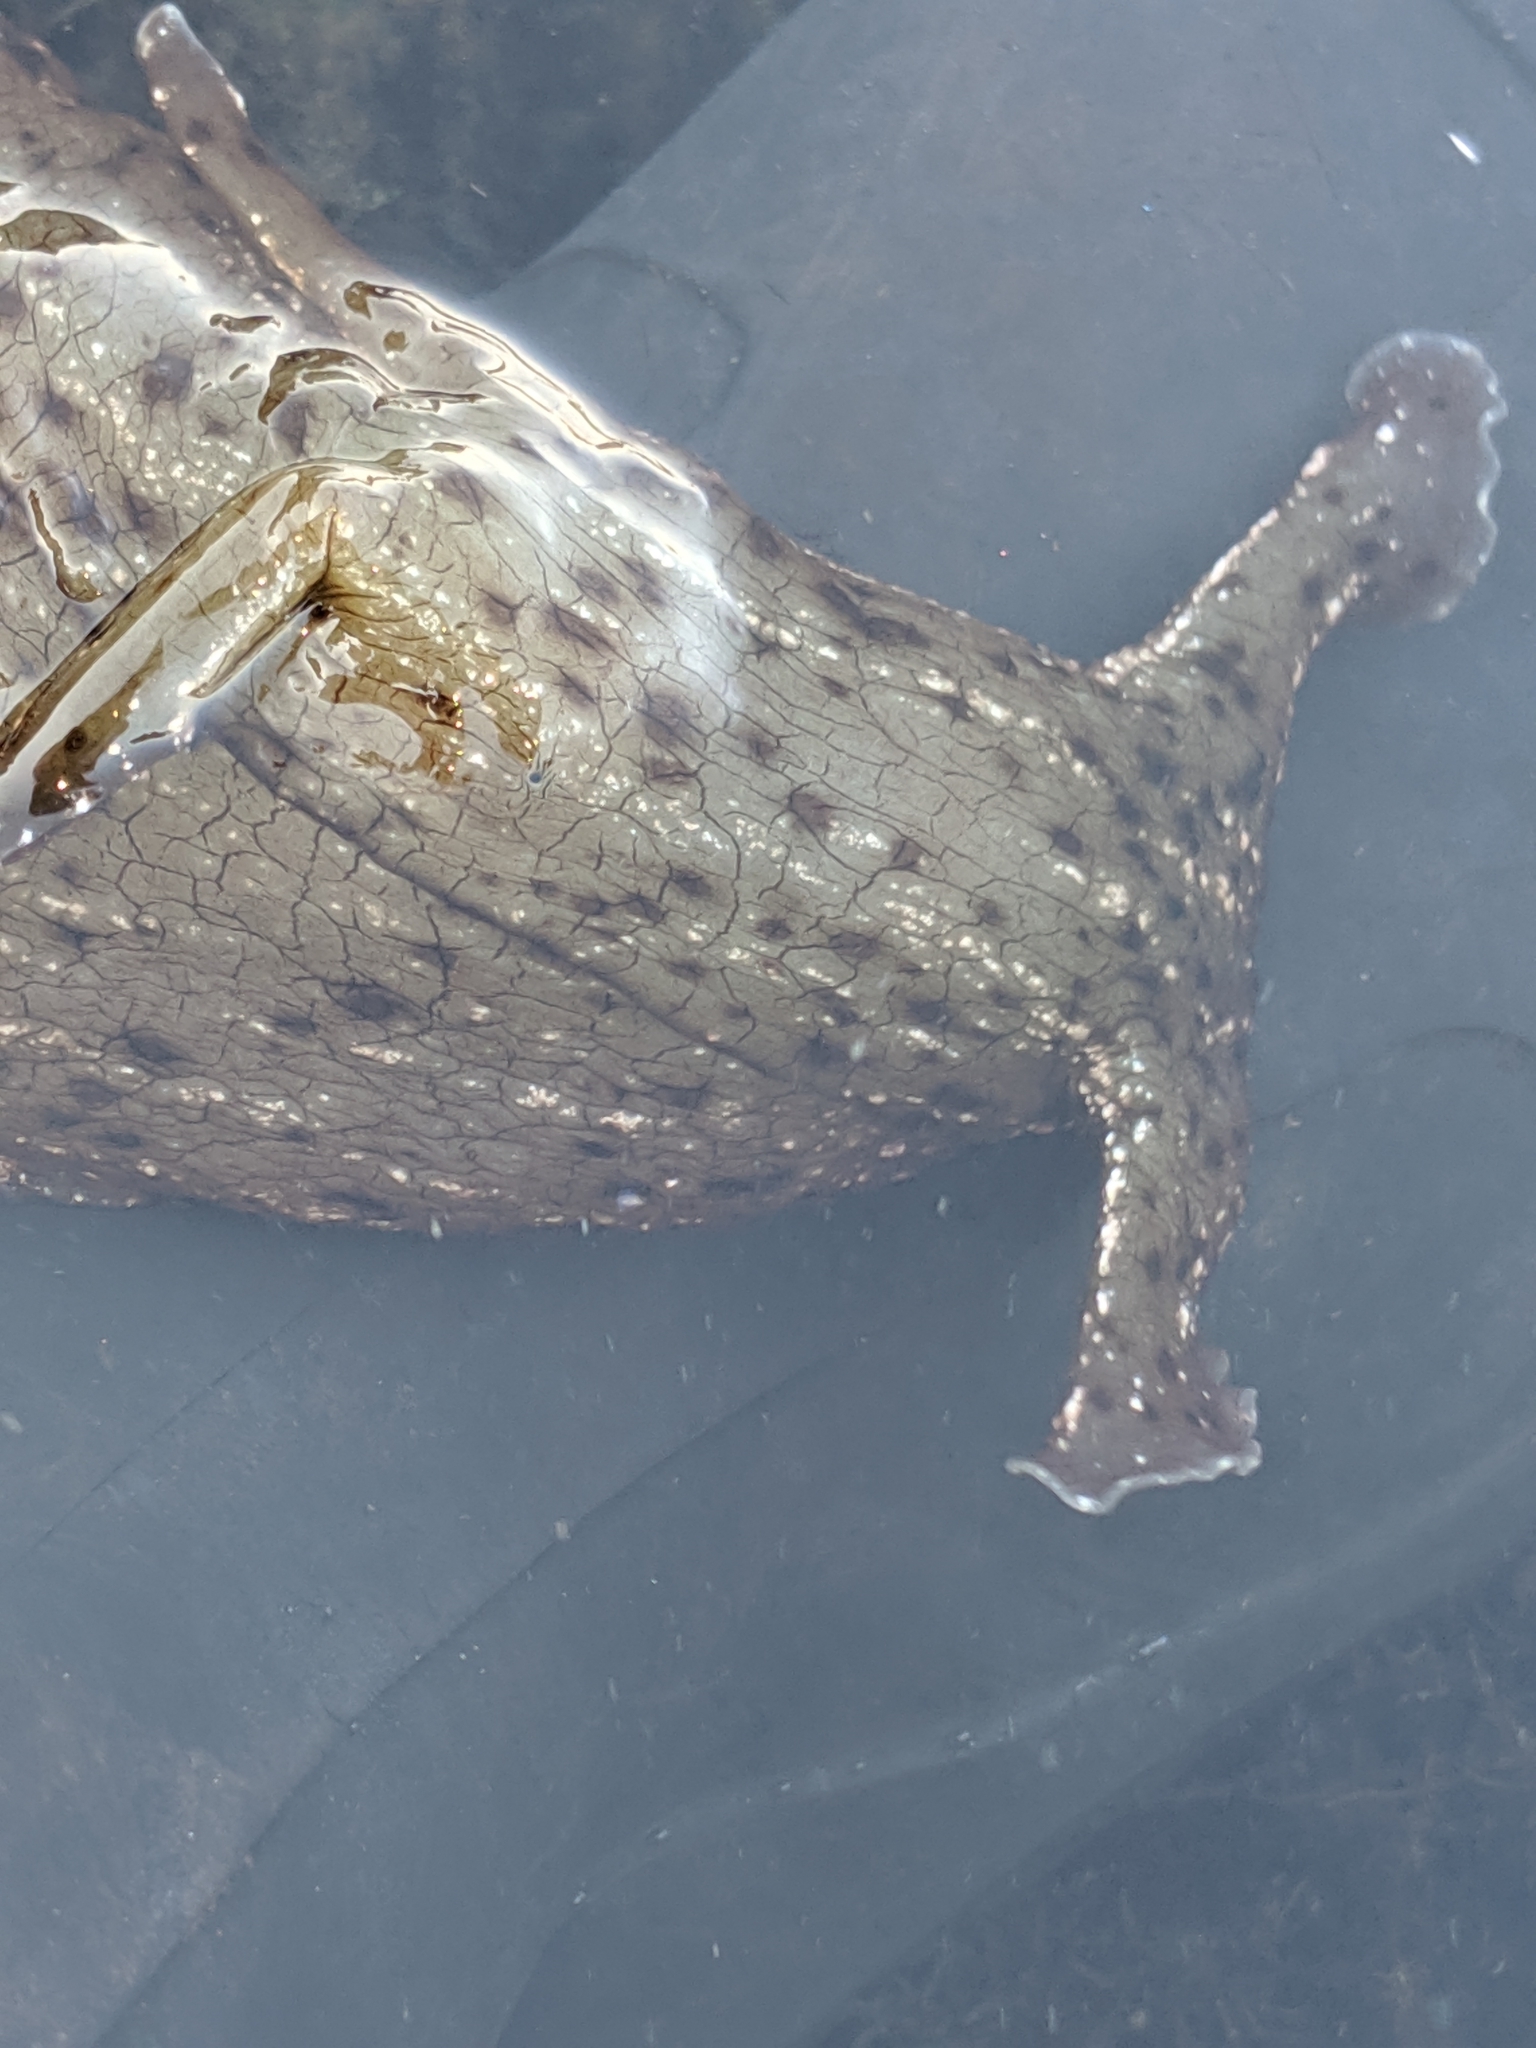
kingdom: Animalia
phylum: Mollusca
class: Gastropoda
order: Aplysiida
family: Aplysiidae
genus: Aplysia
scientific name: Aplysia californica
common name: California seahare
